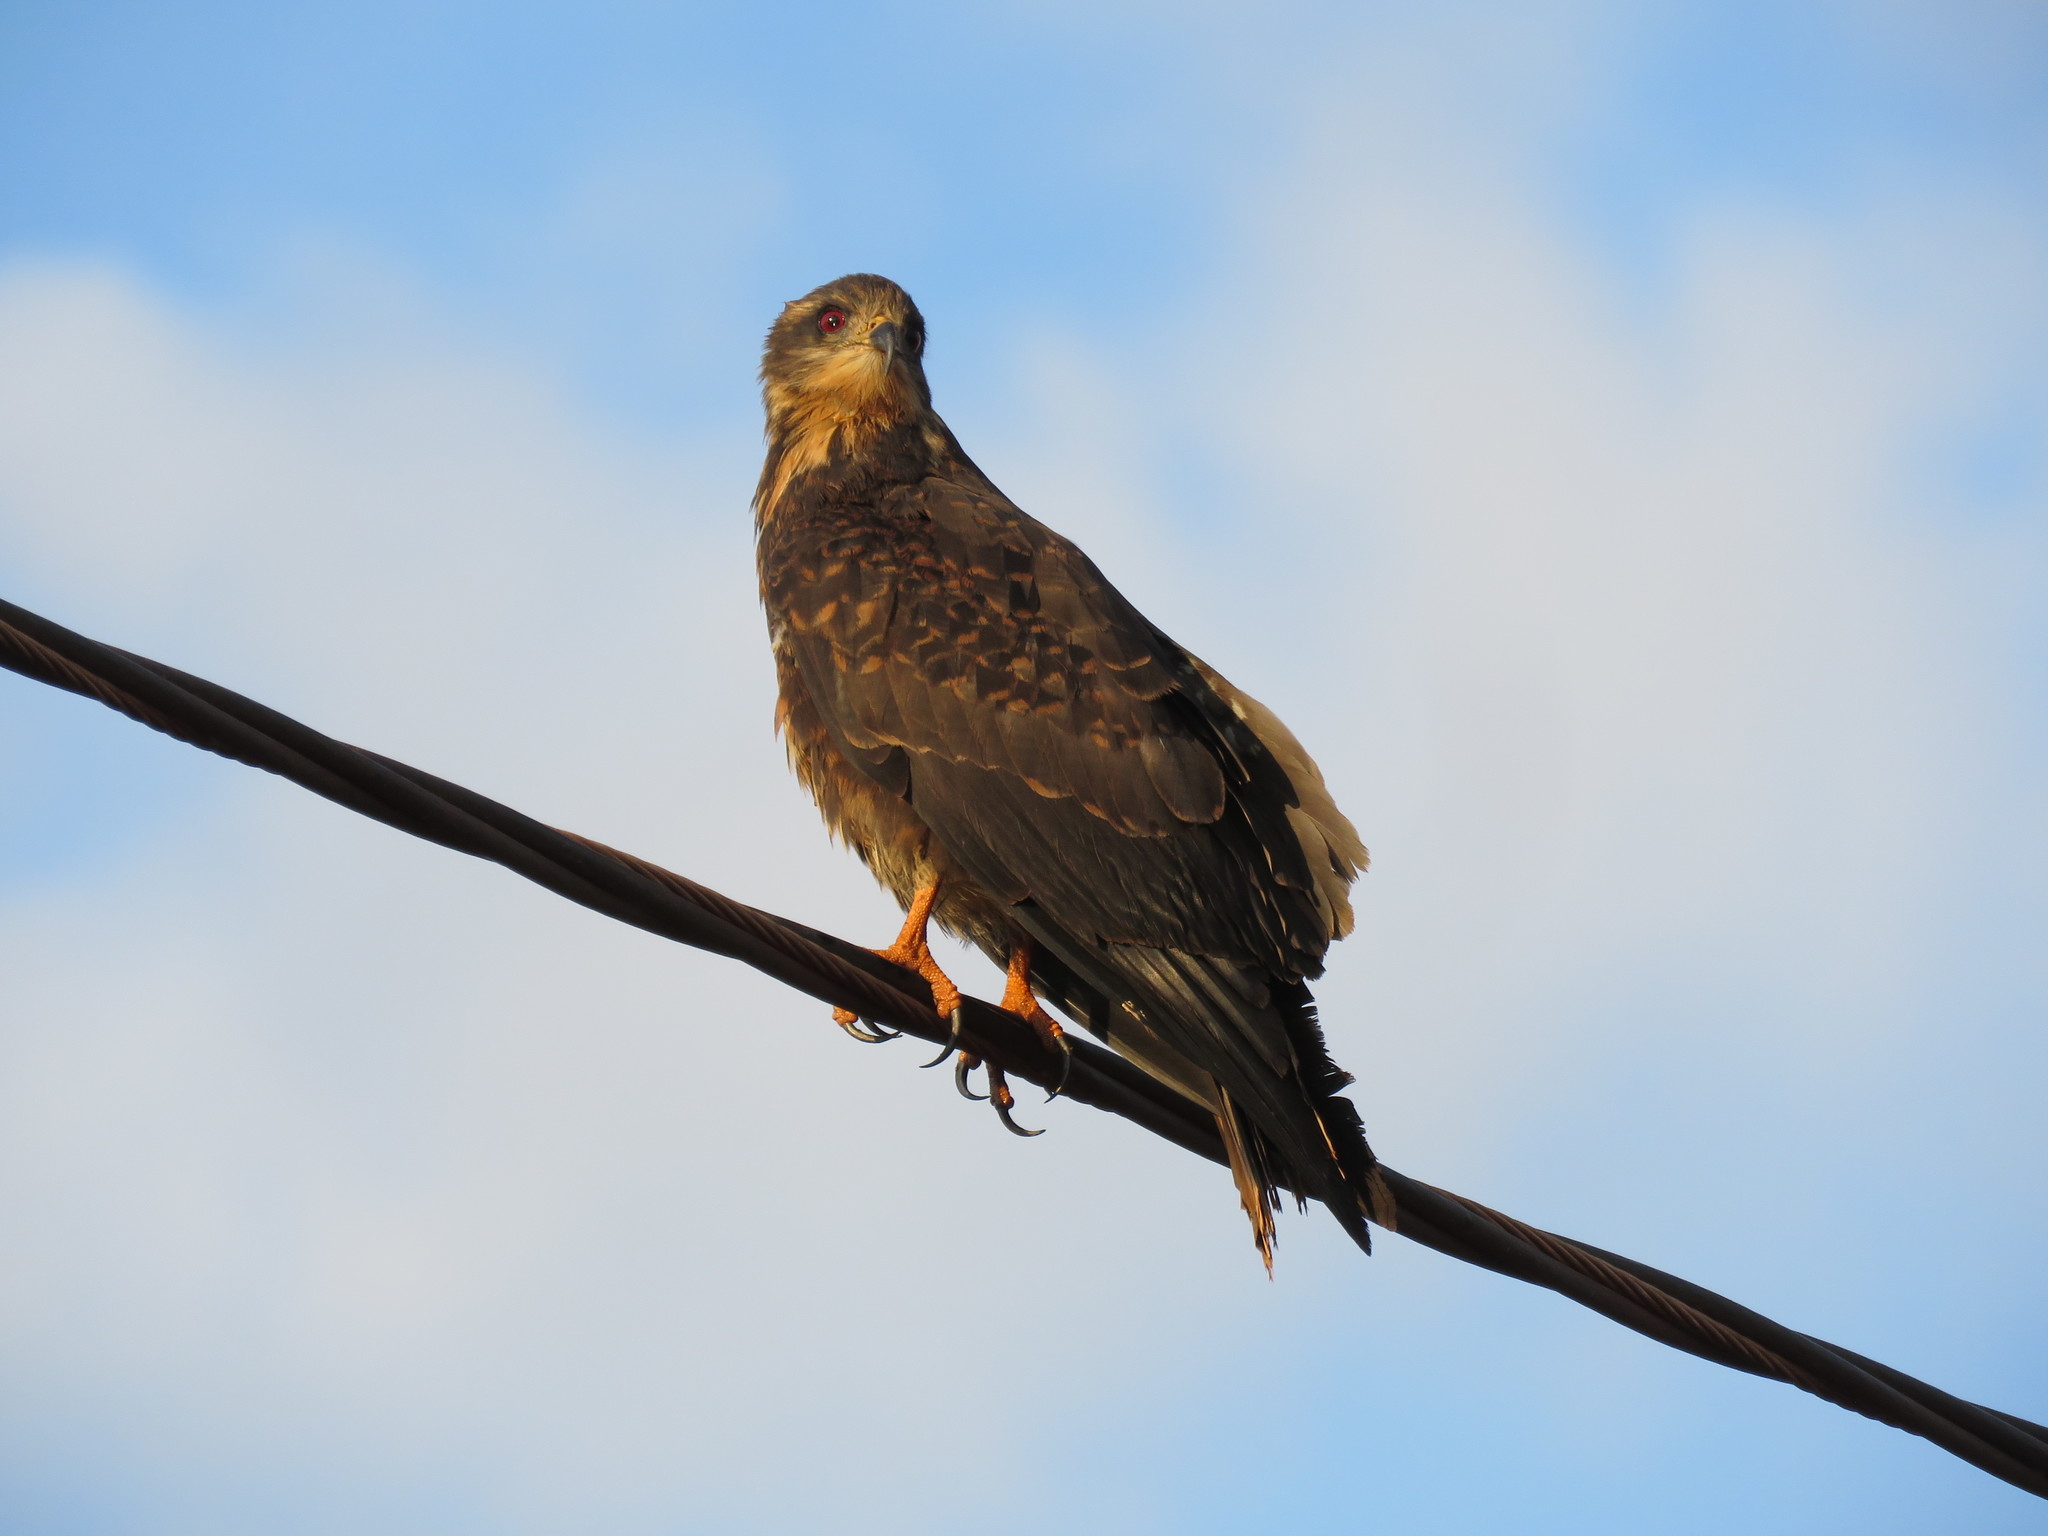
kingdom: Animalia
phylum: Chordata
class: Aves
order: Accipitriformes
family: Accipitridae
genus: Rostrhamus
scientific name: Rostrhamus sociabilis
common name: Snail kite
